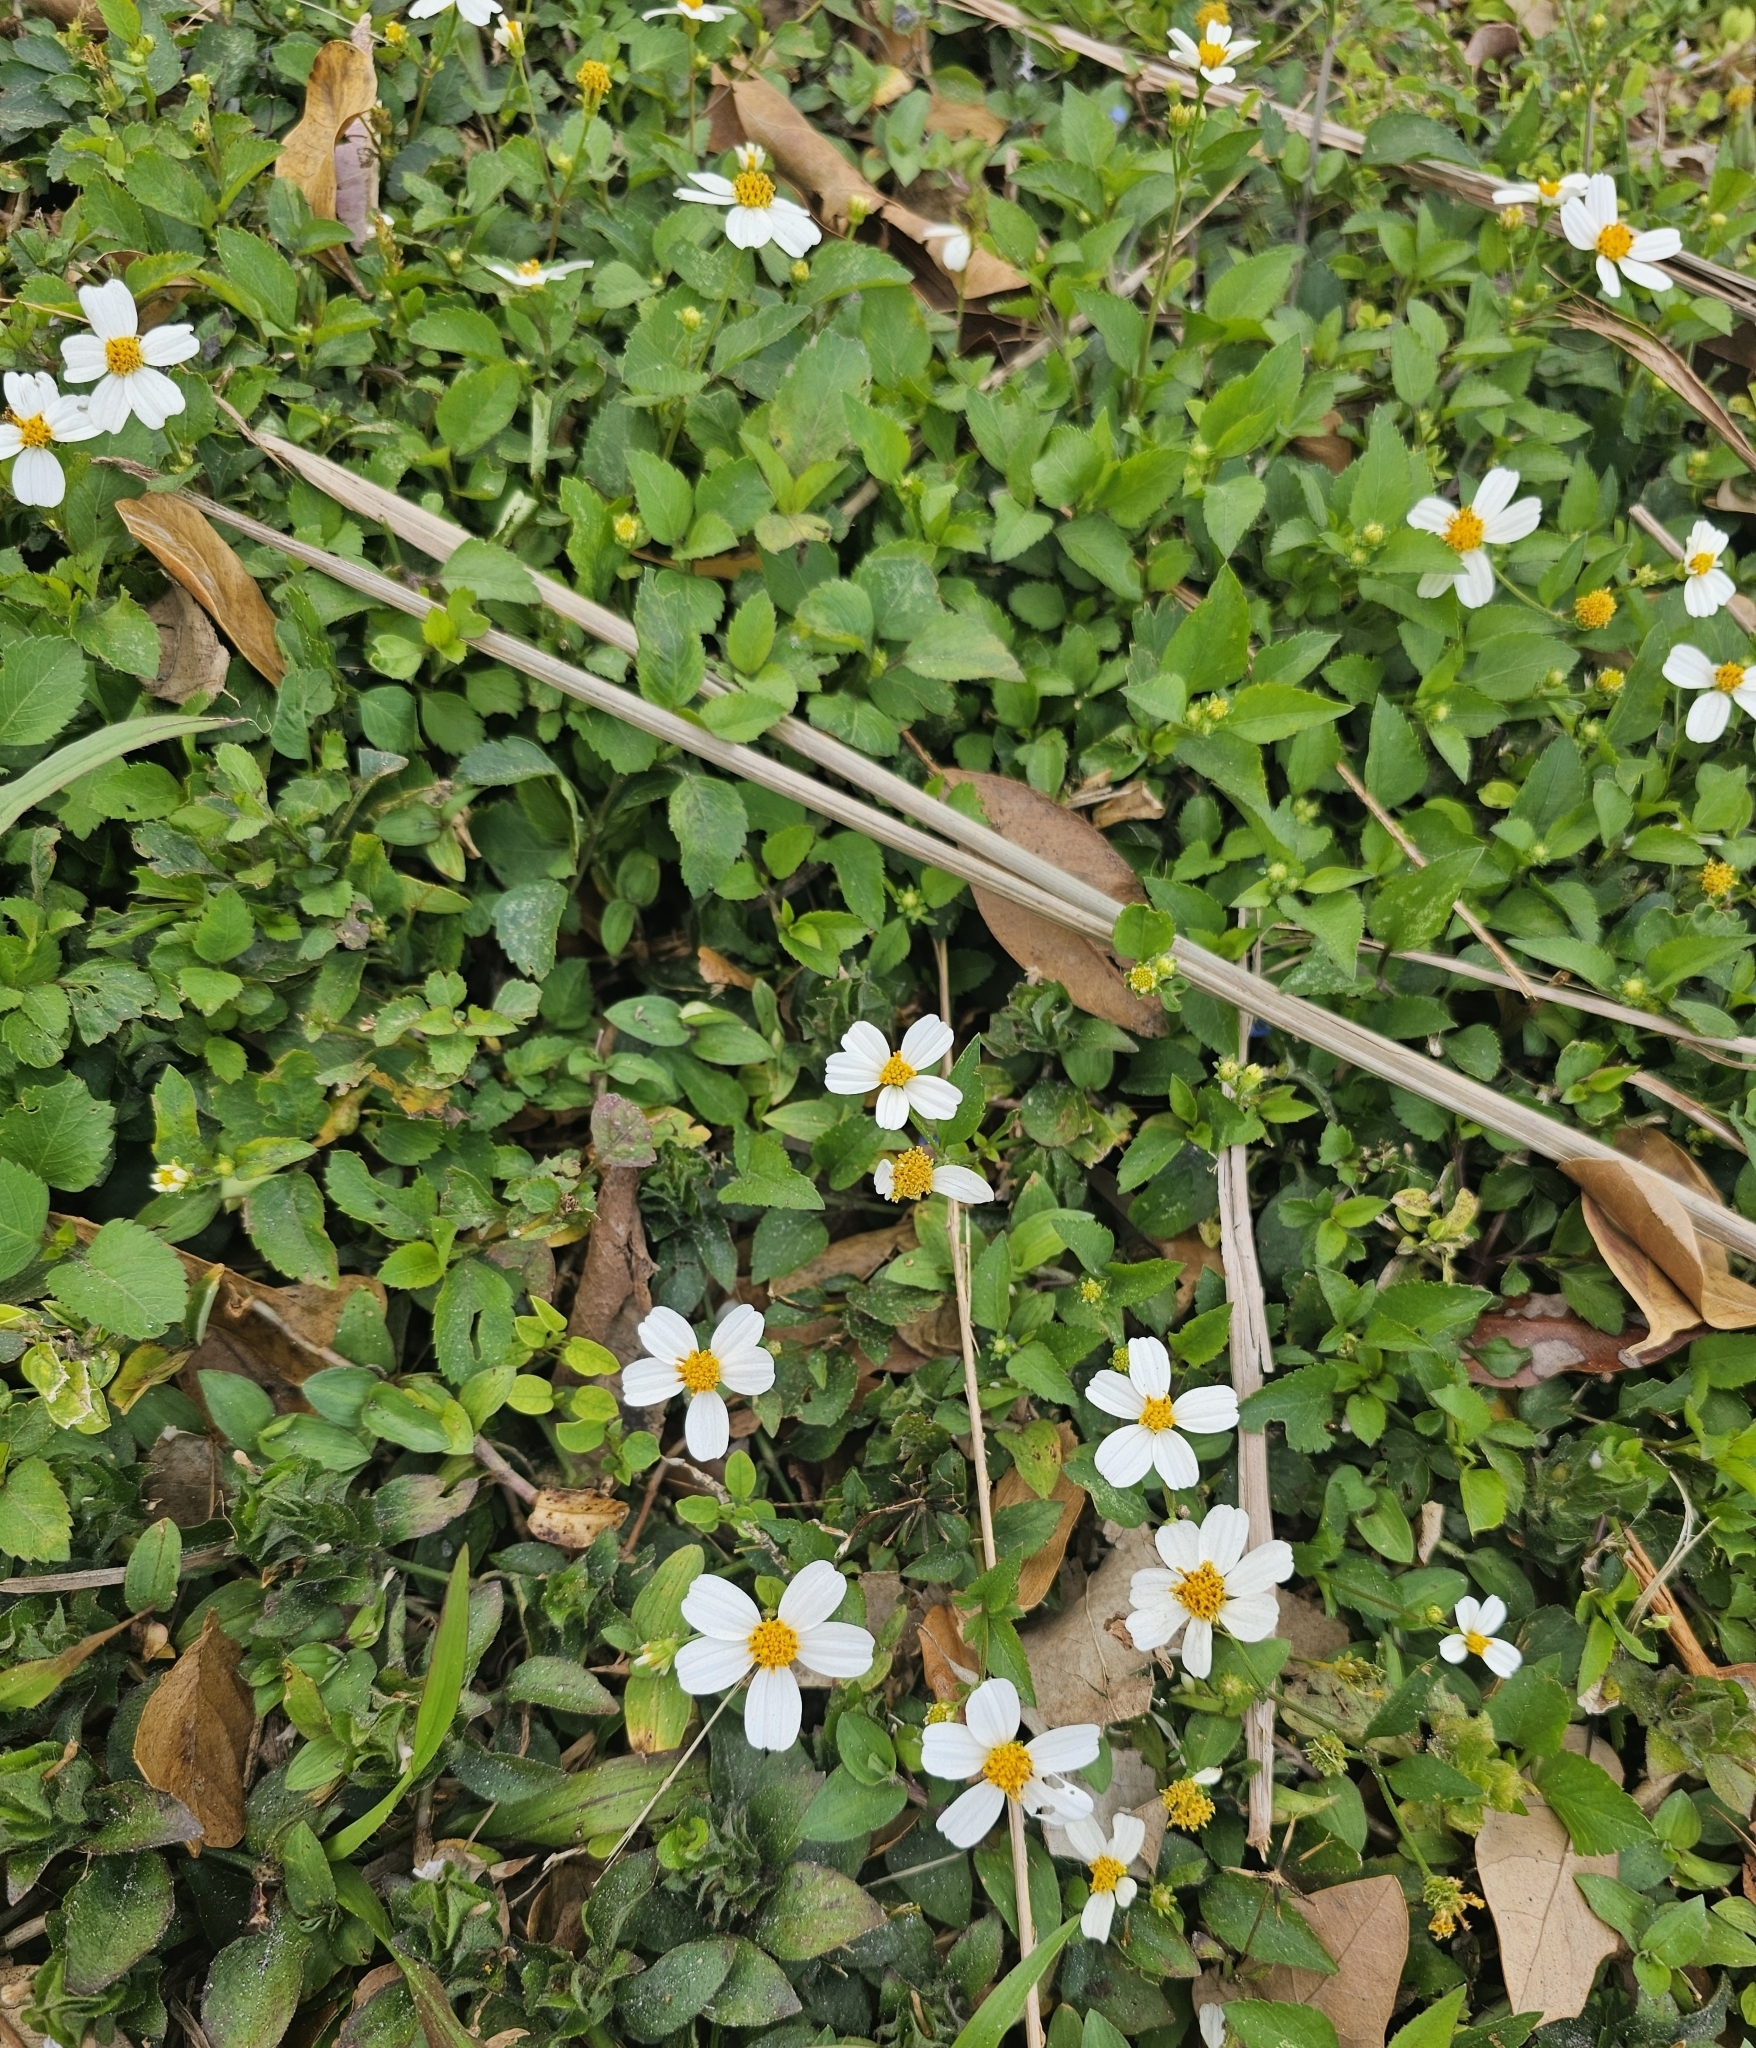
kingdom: Plantae
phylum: Tracheophyta
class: Magnoliopsida
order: Asterales
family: Asteraceae
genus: Bidens
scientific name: Bidens alba
